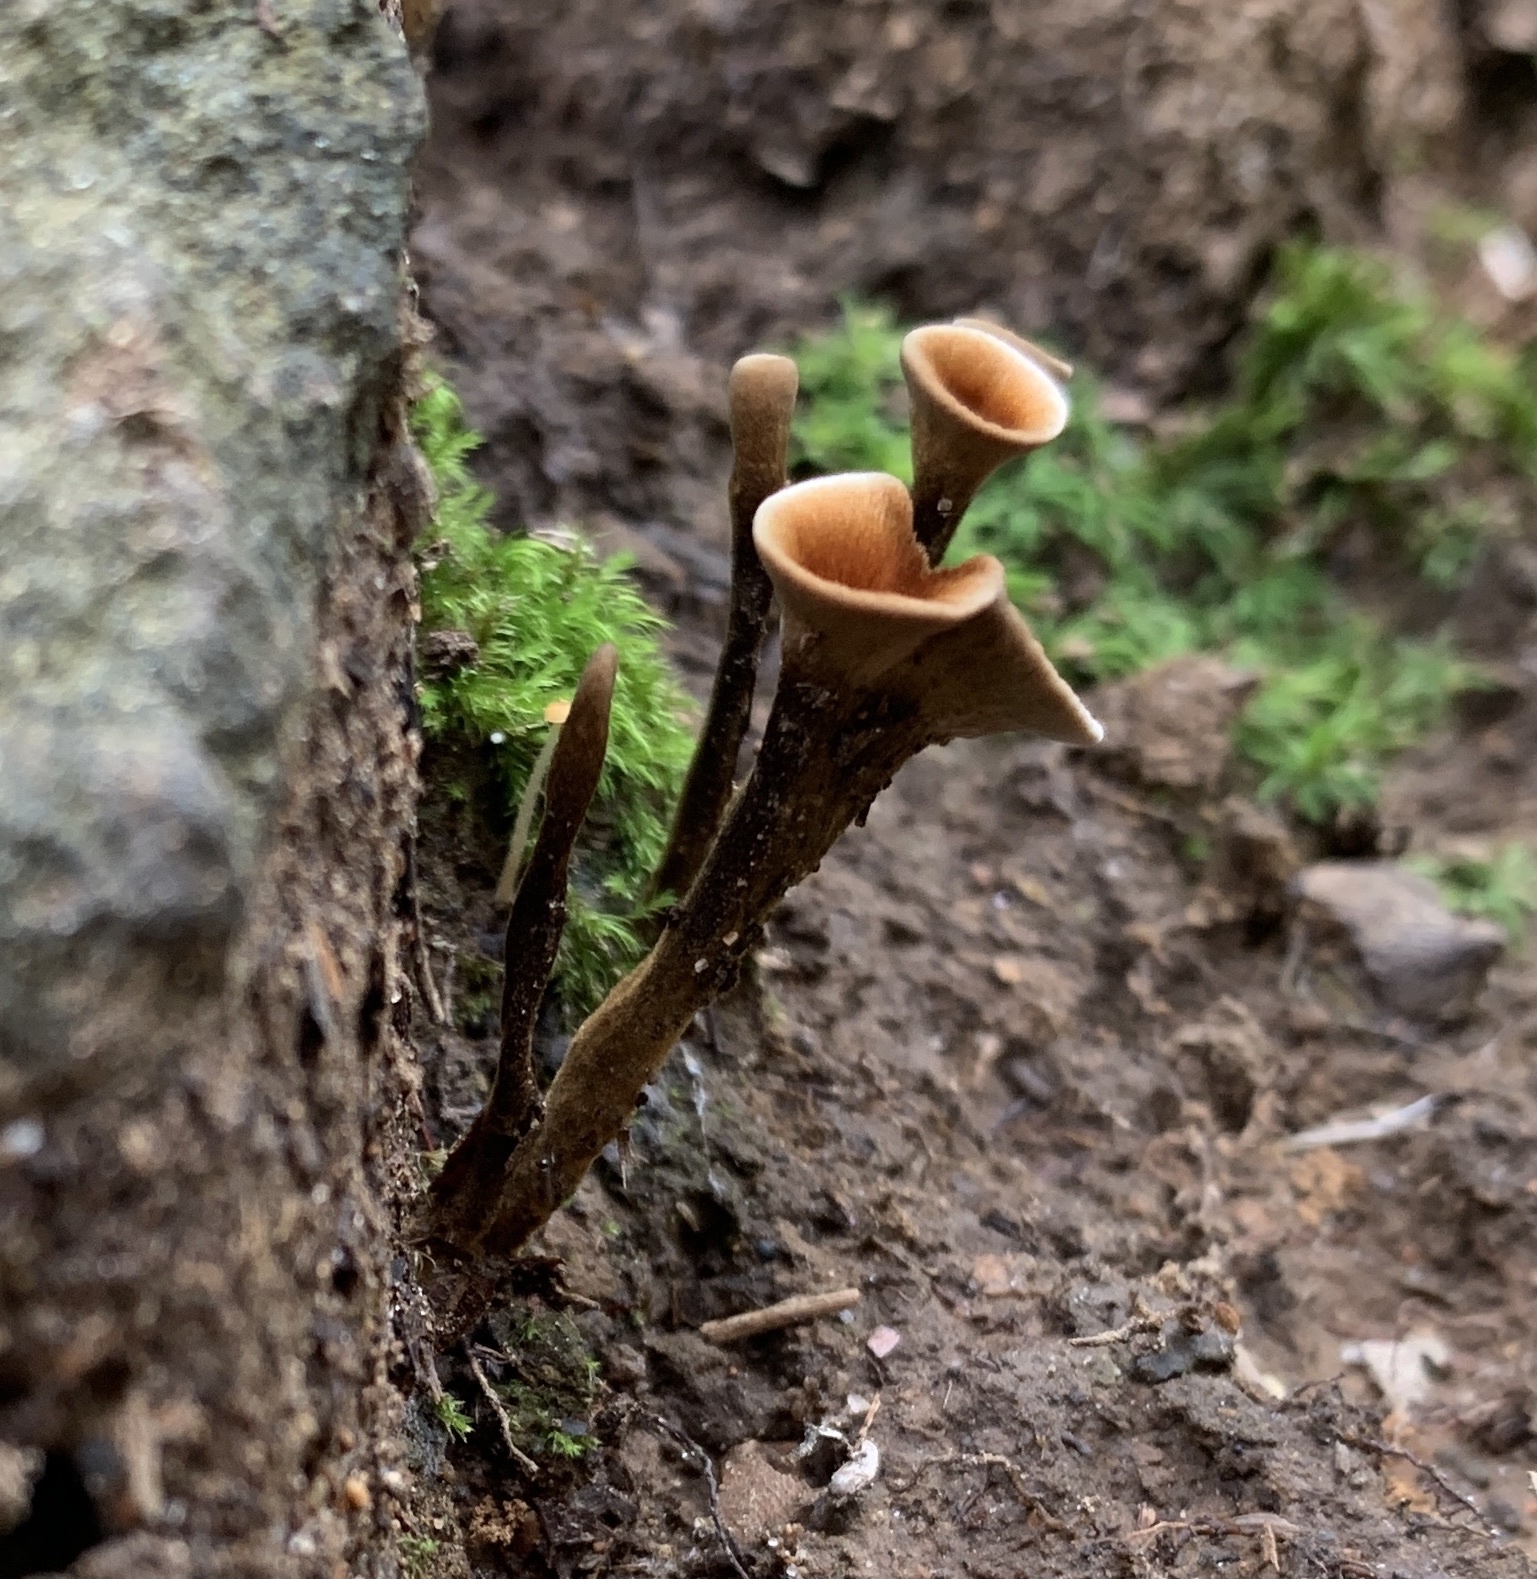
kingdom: Fungi
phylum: Basidiomycota
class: Agaricomycetes
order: Hymenochaetales
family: Hymenochaetaceae
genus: Coltricia
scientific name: Coltricia cinnamomea
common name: Shiny cinnamon polypore
